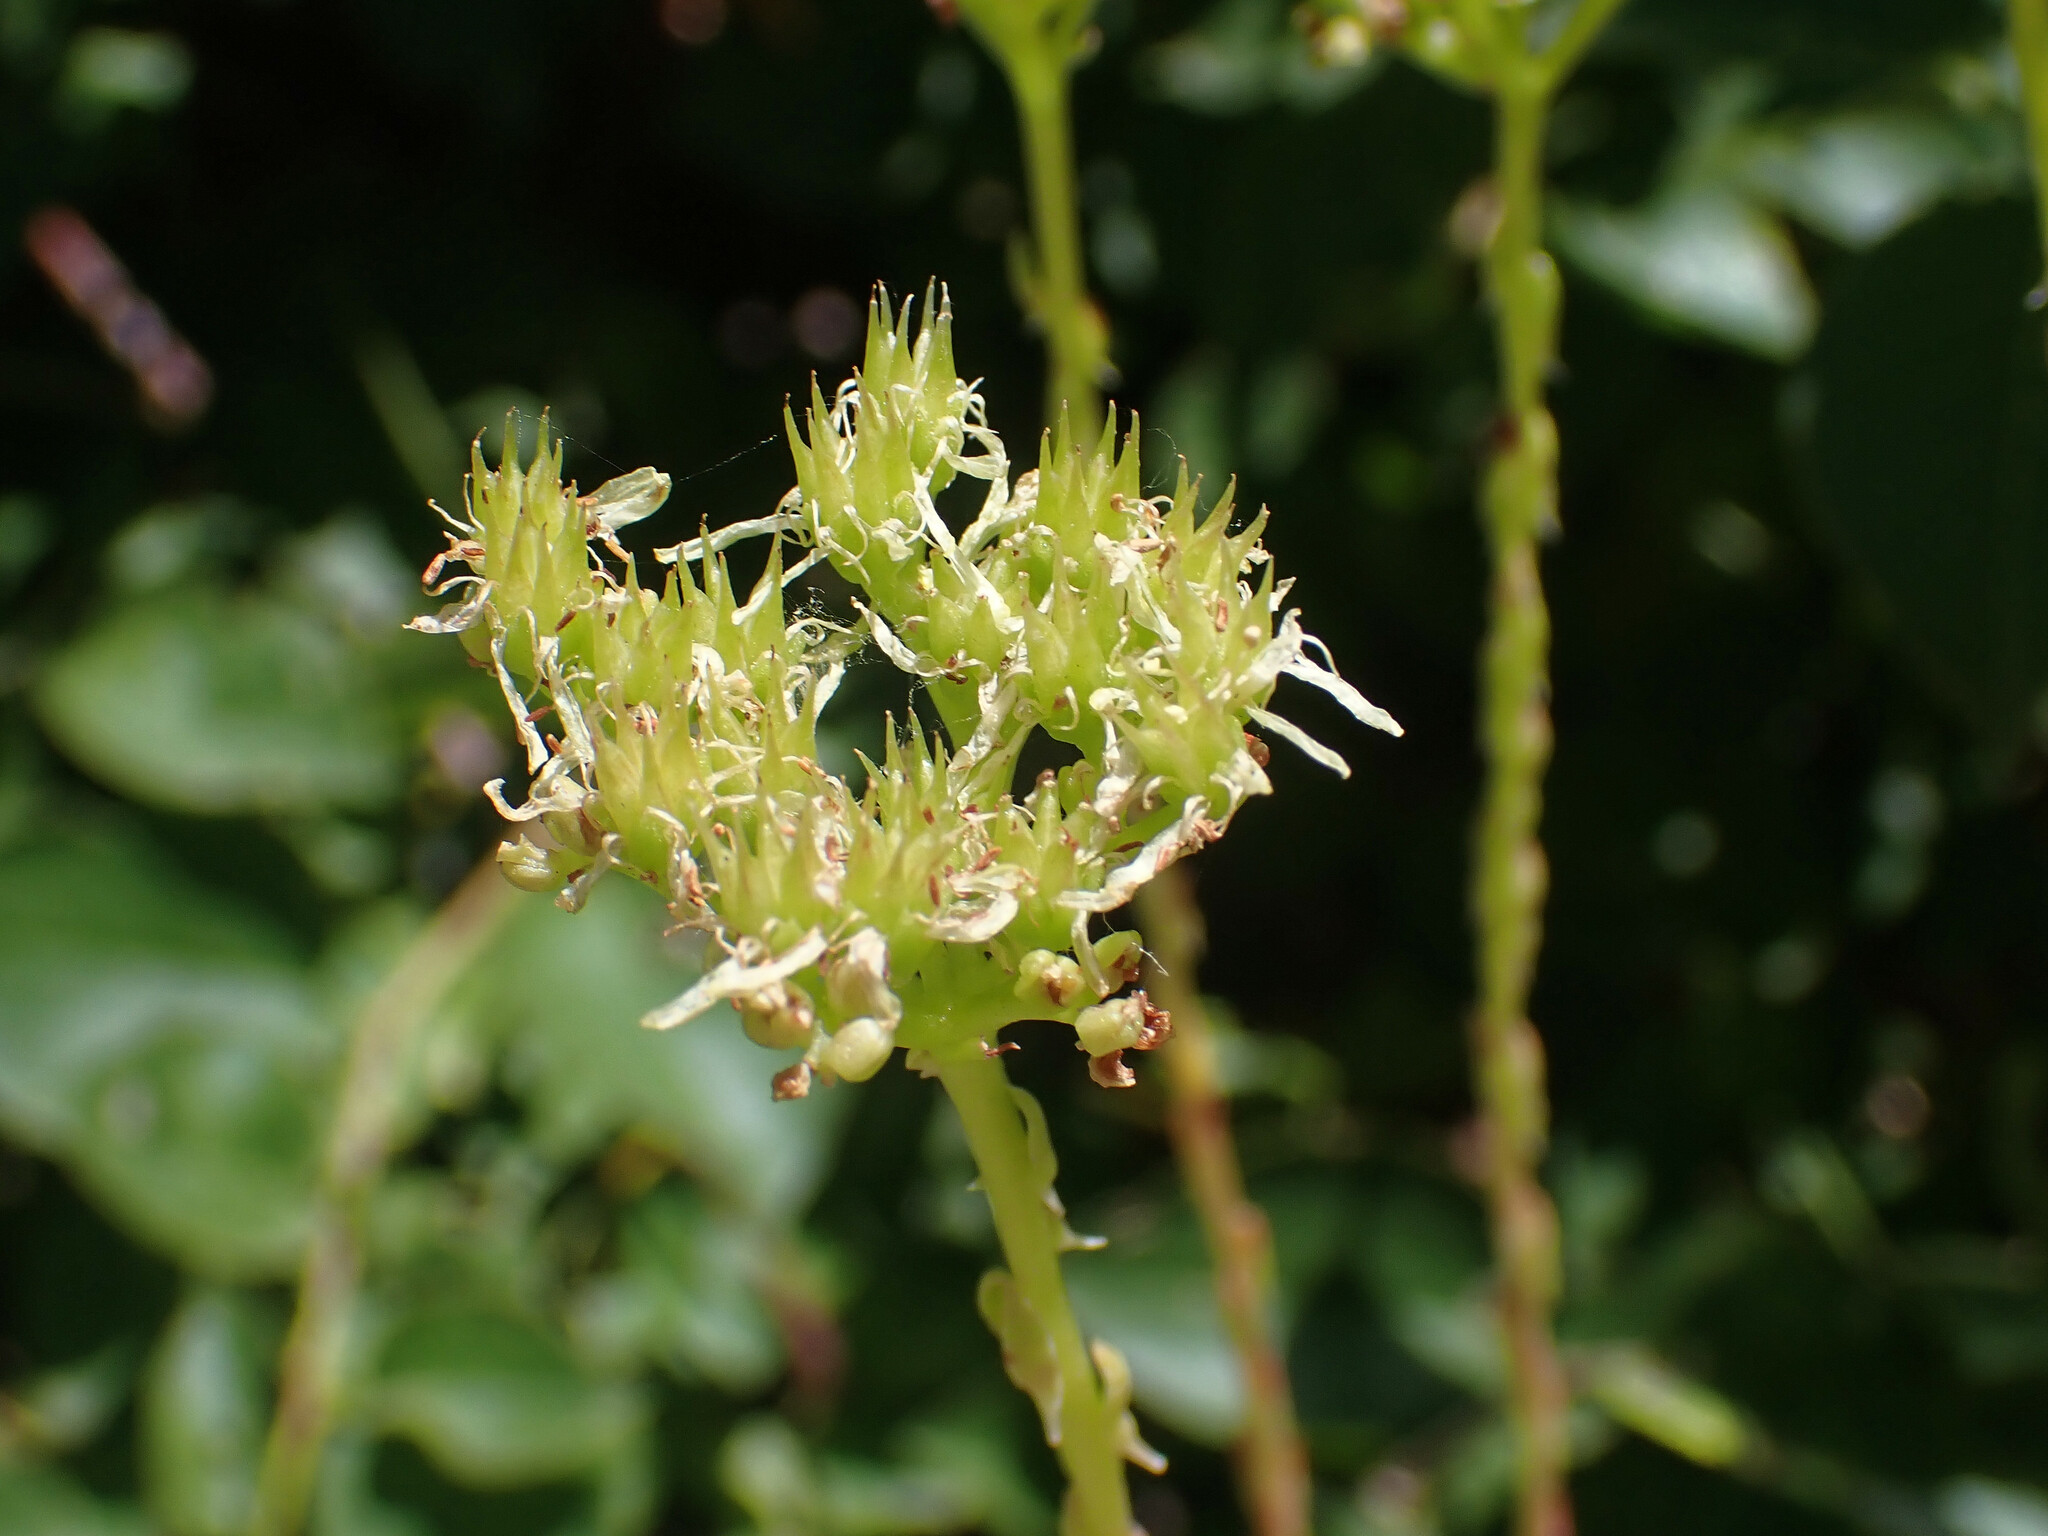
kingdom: Plantae
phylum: Tracheophyta
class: Magnoliopsida
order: Saxifragales
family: Crassulaceae
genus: Petrosedum
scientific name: Petrosedum sediforme
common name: Pale stonecrop
